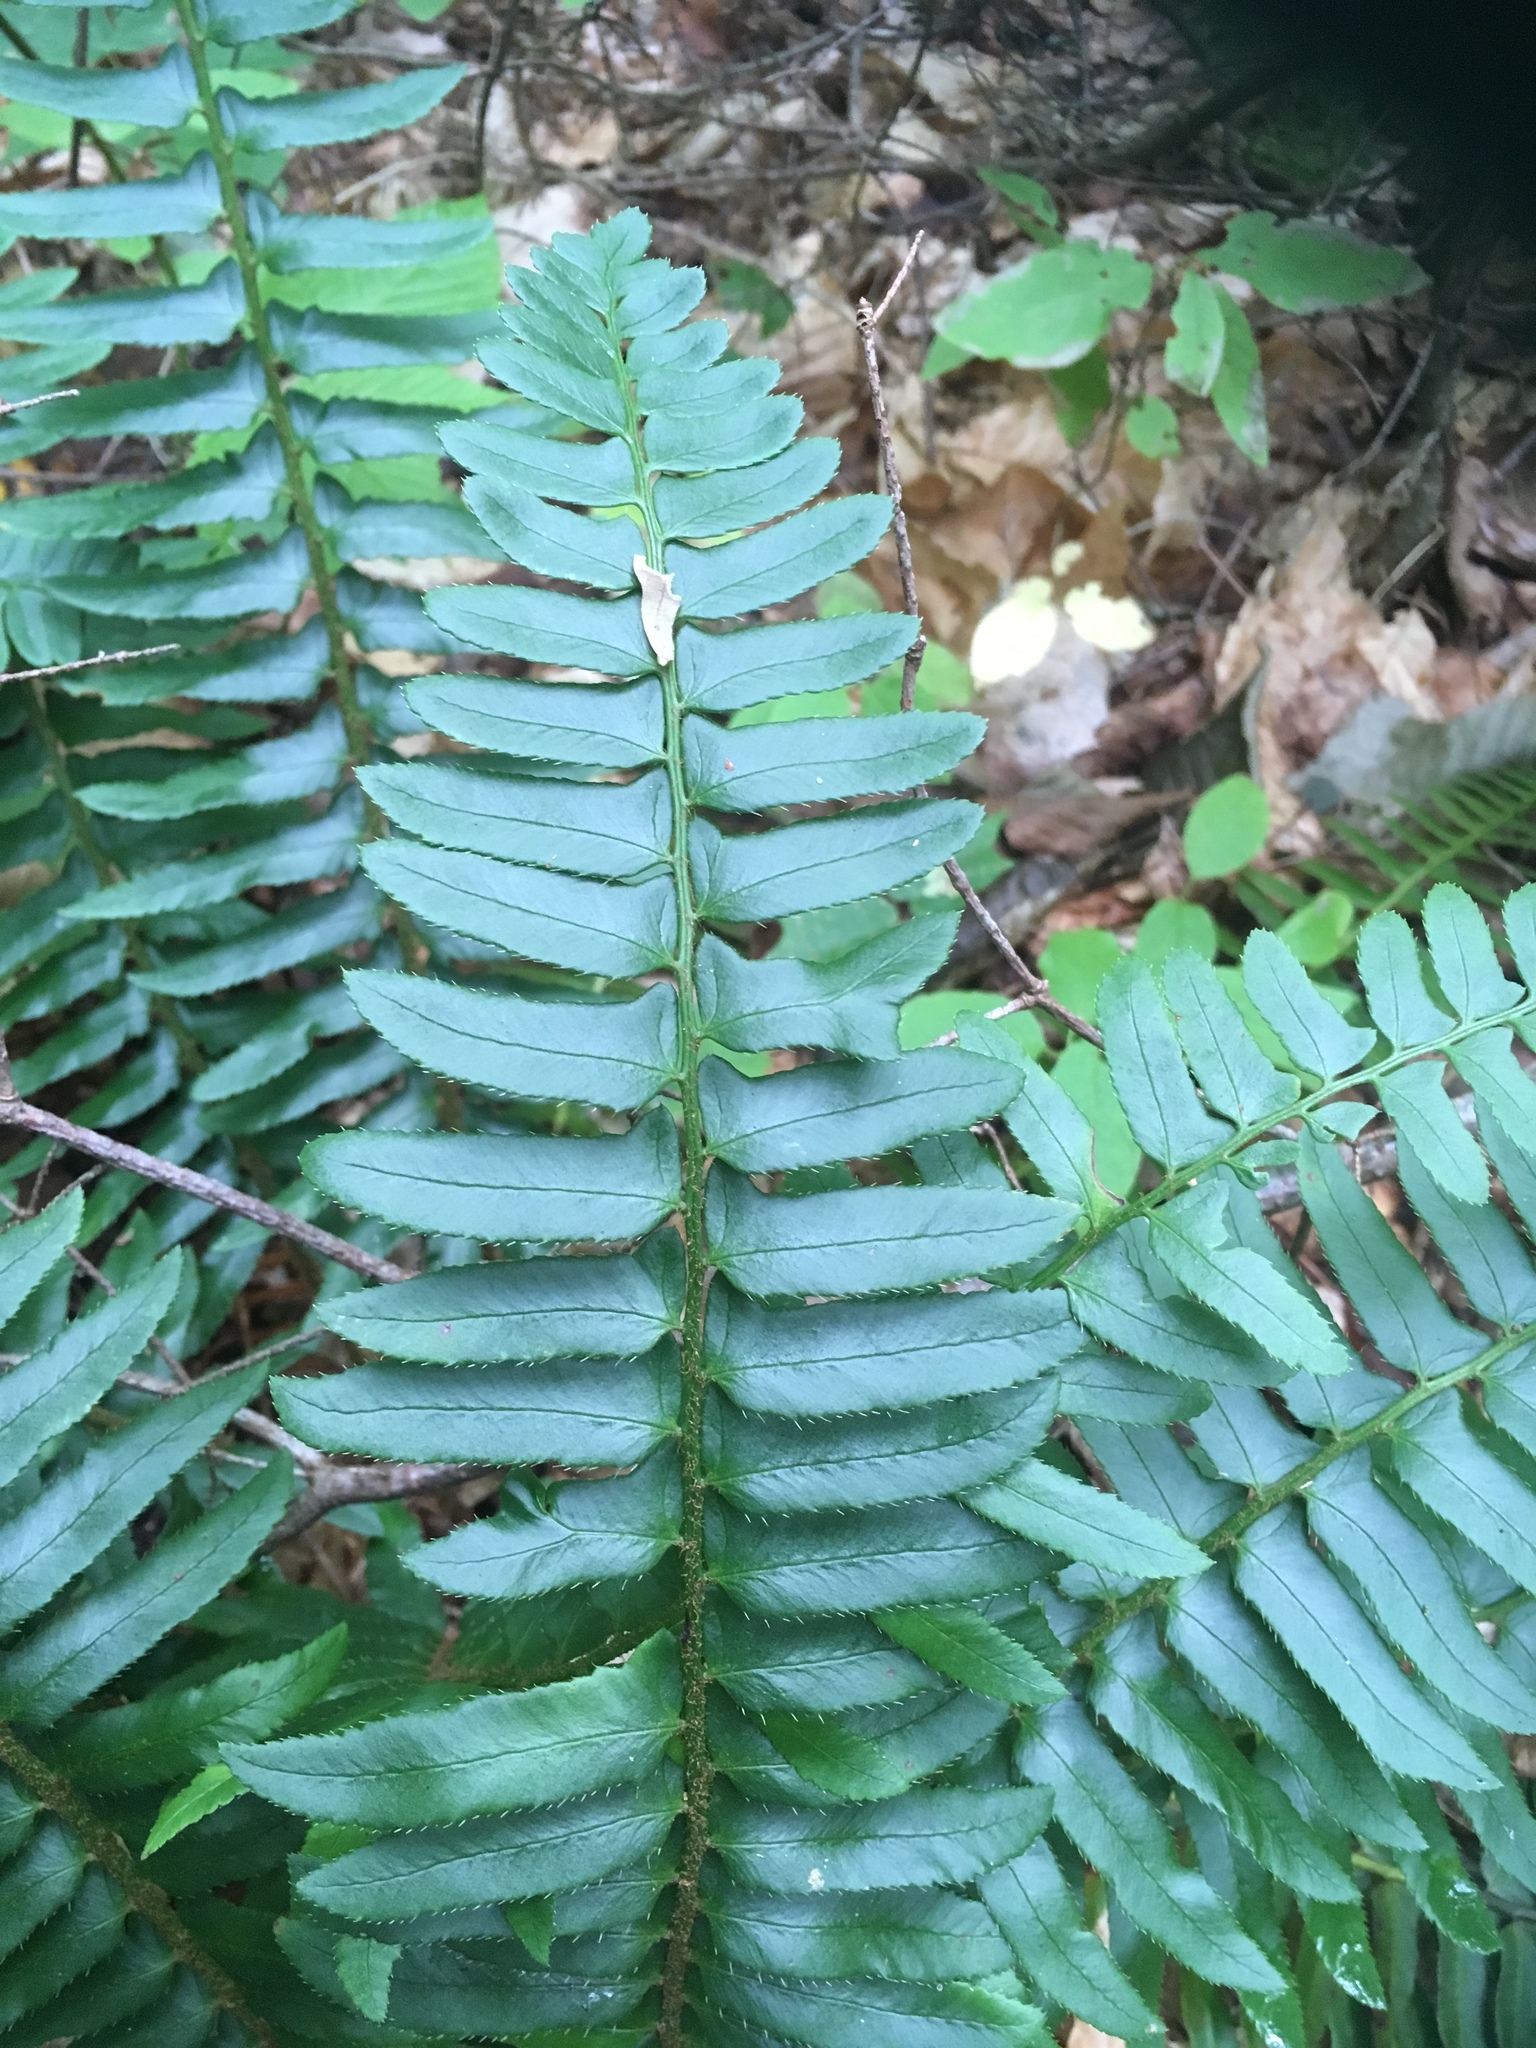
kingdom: Plantae
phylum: Tracheophyta
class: Polypodiopsida
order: Polypodiales
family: Dryopteridaceae
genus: Polystichum
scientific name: Polystichum acrostichoides
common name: Christmas fern
